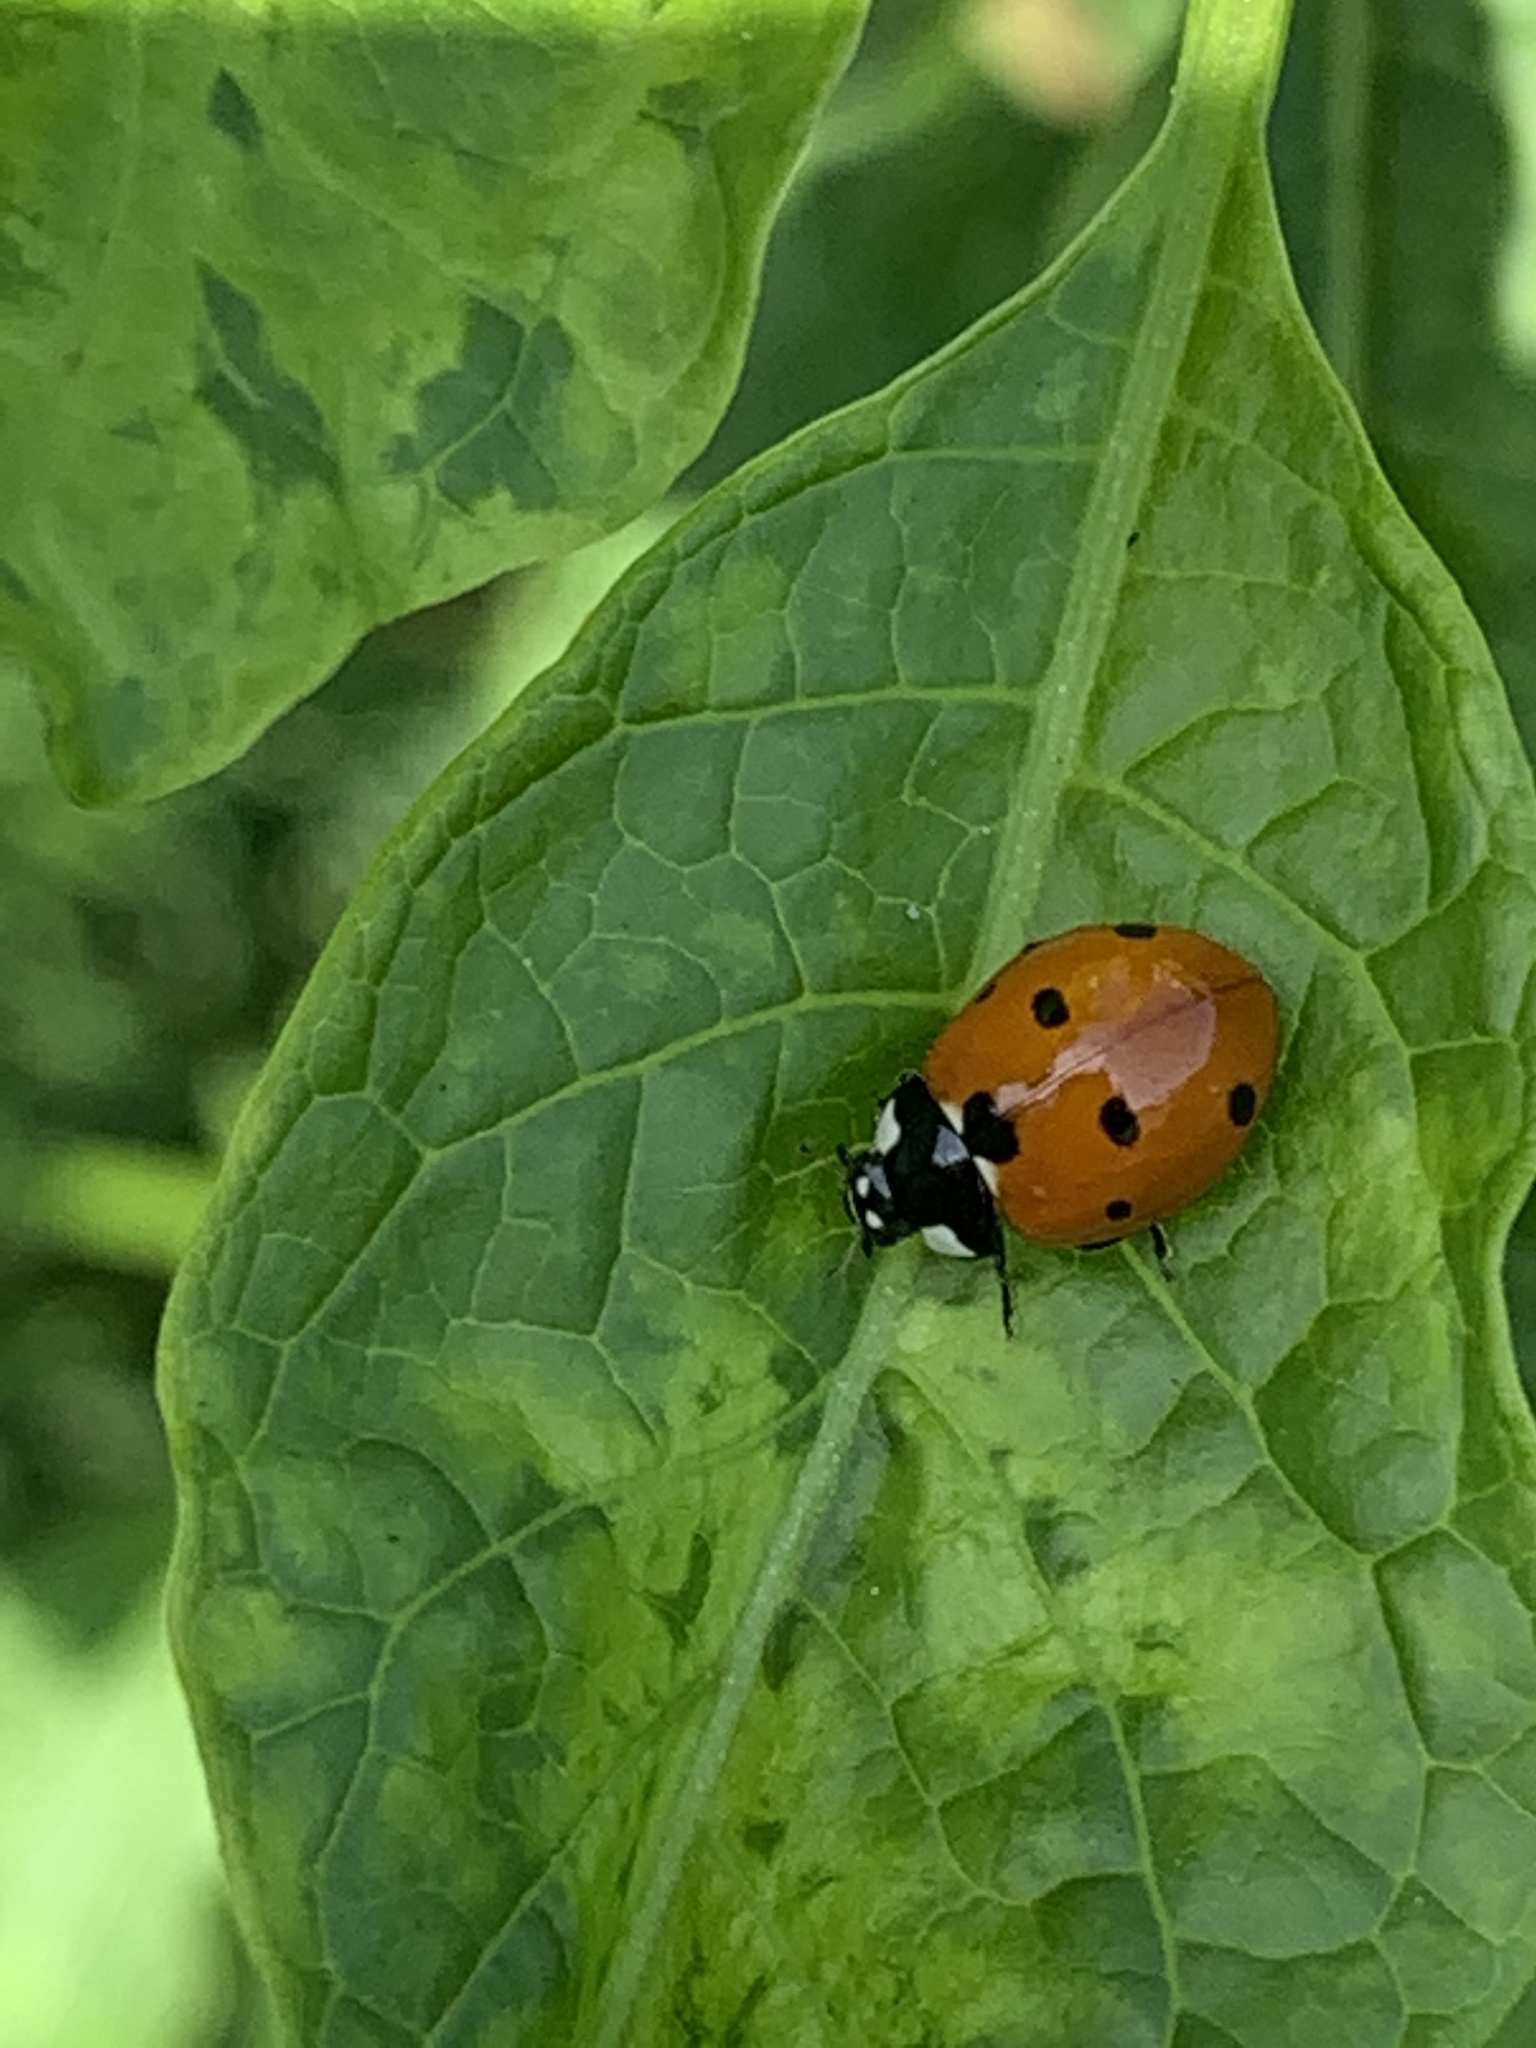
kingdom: Animalia
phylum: Arthropoda
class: Insecta
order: Coleoptera
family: Coccinellidae
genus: Coccinella
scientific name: Coccinella septempunctata
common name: Sevenspotted lady beetle
